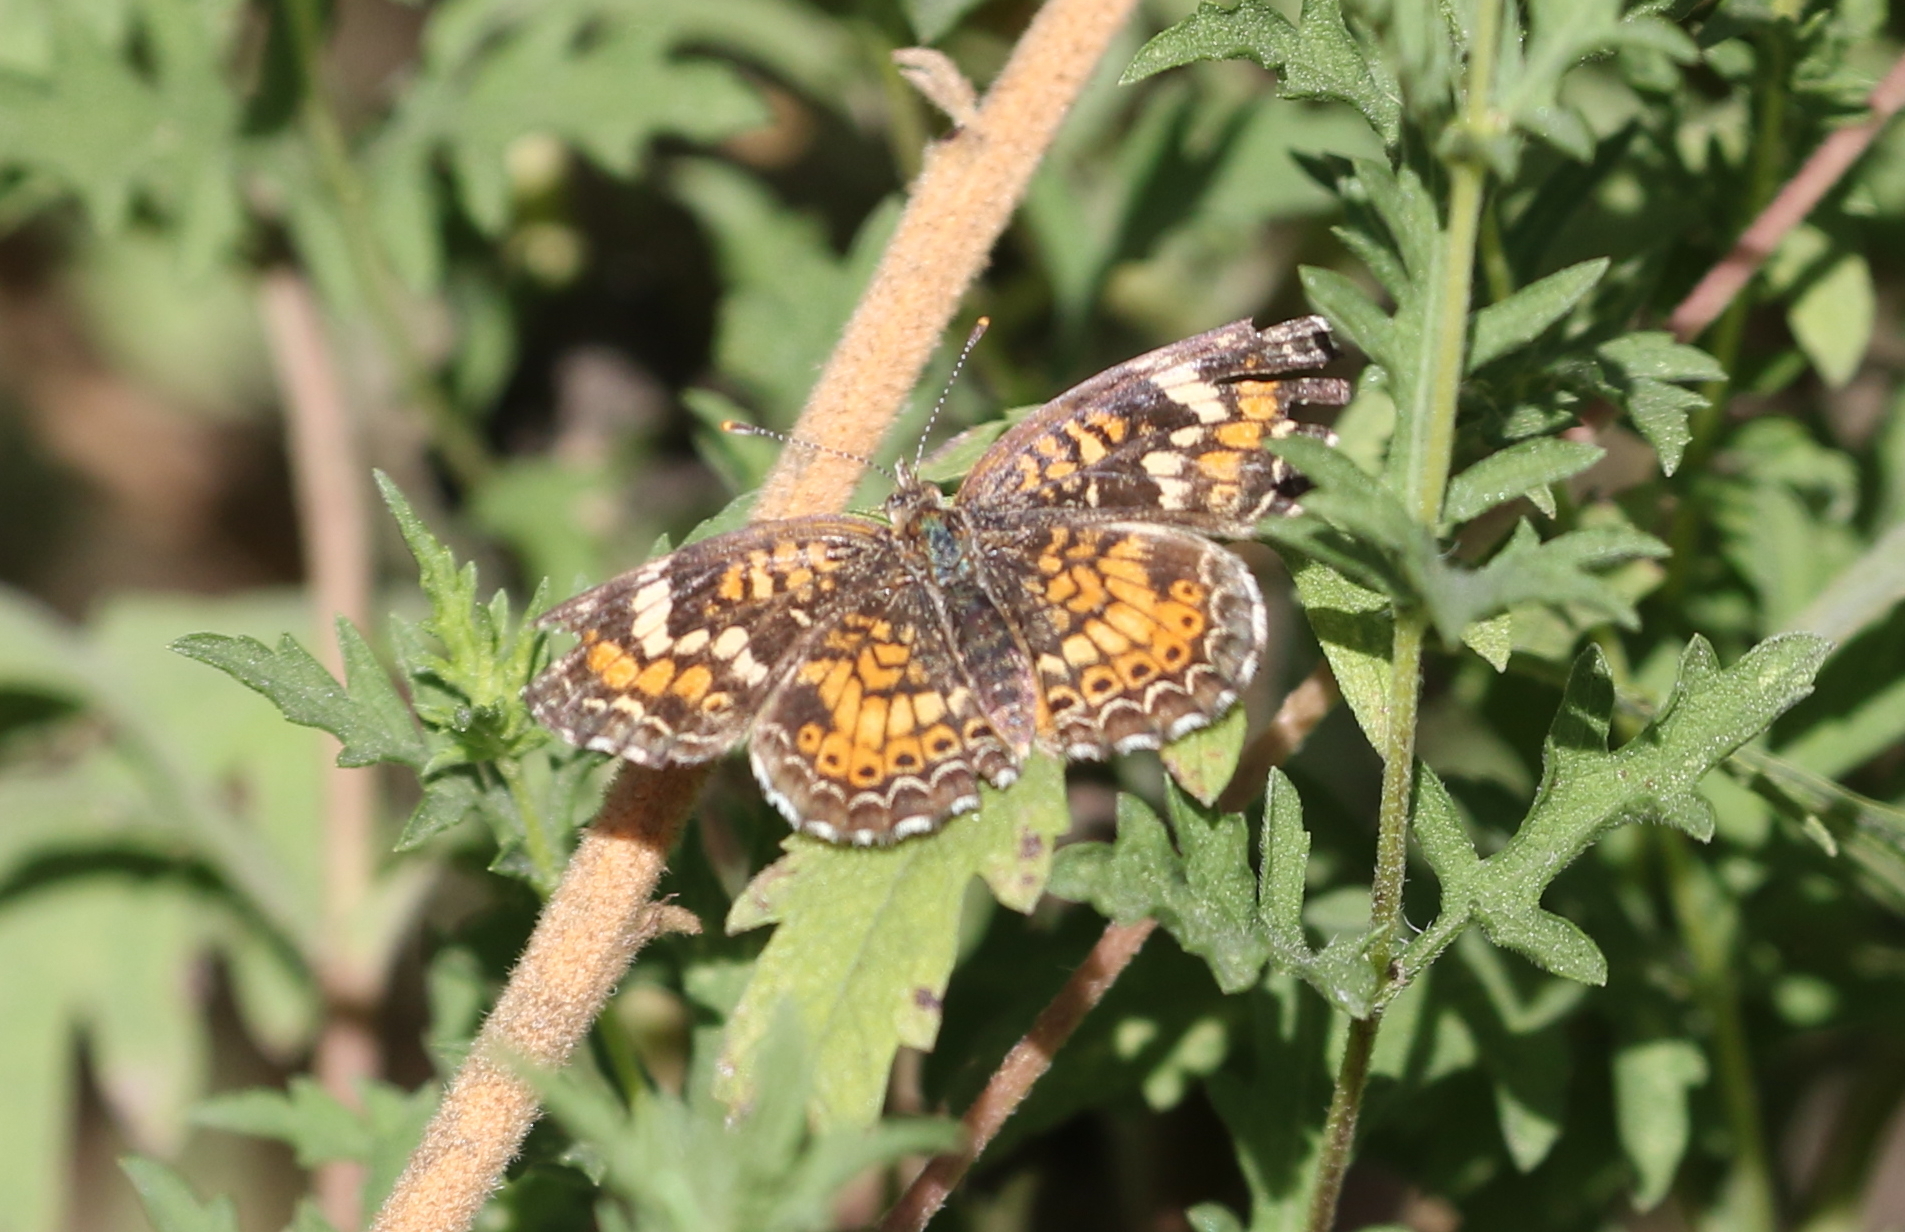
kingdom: Animalia
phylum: Arthropoda
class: Insecta
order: Lepidoptera
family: Nymphalidae
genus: Phyciodes
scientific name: Phyciodes phaon
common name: Phaon crescent
